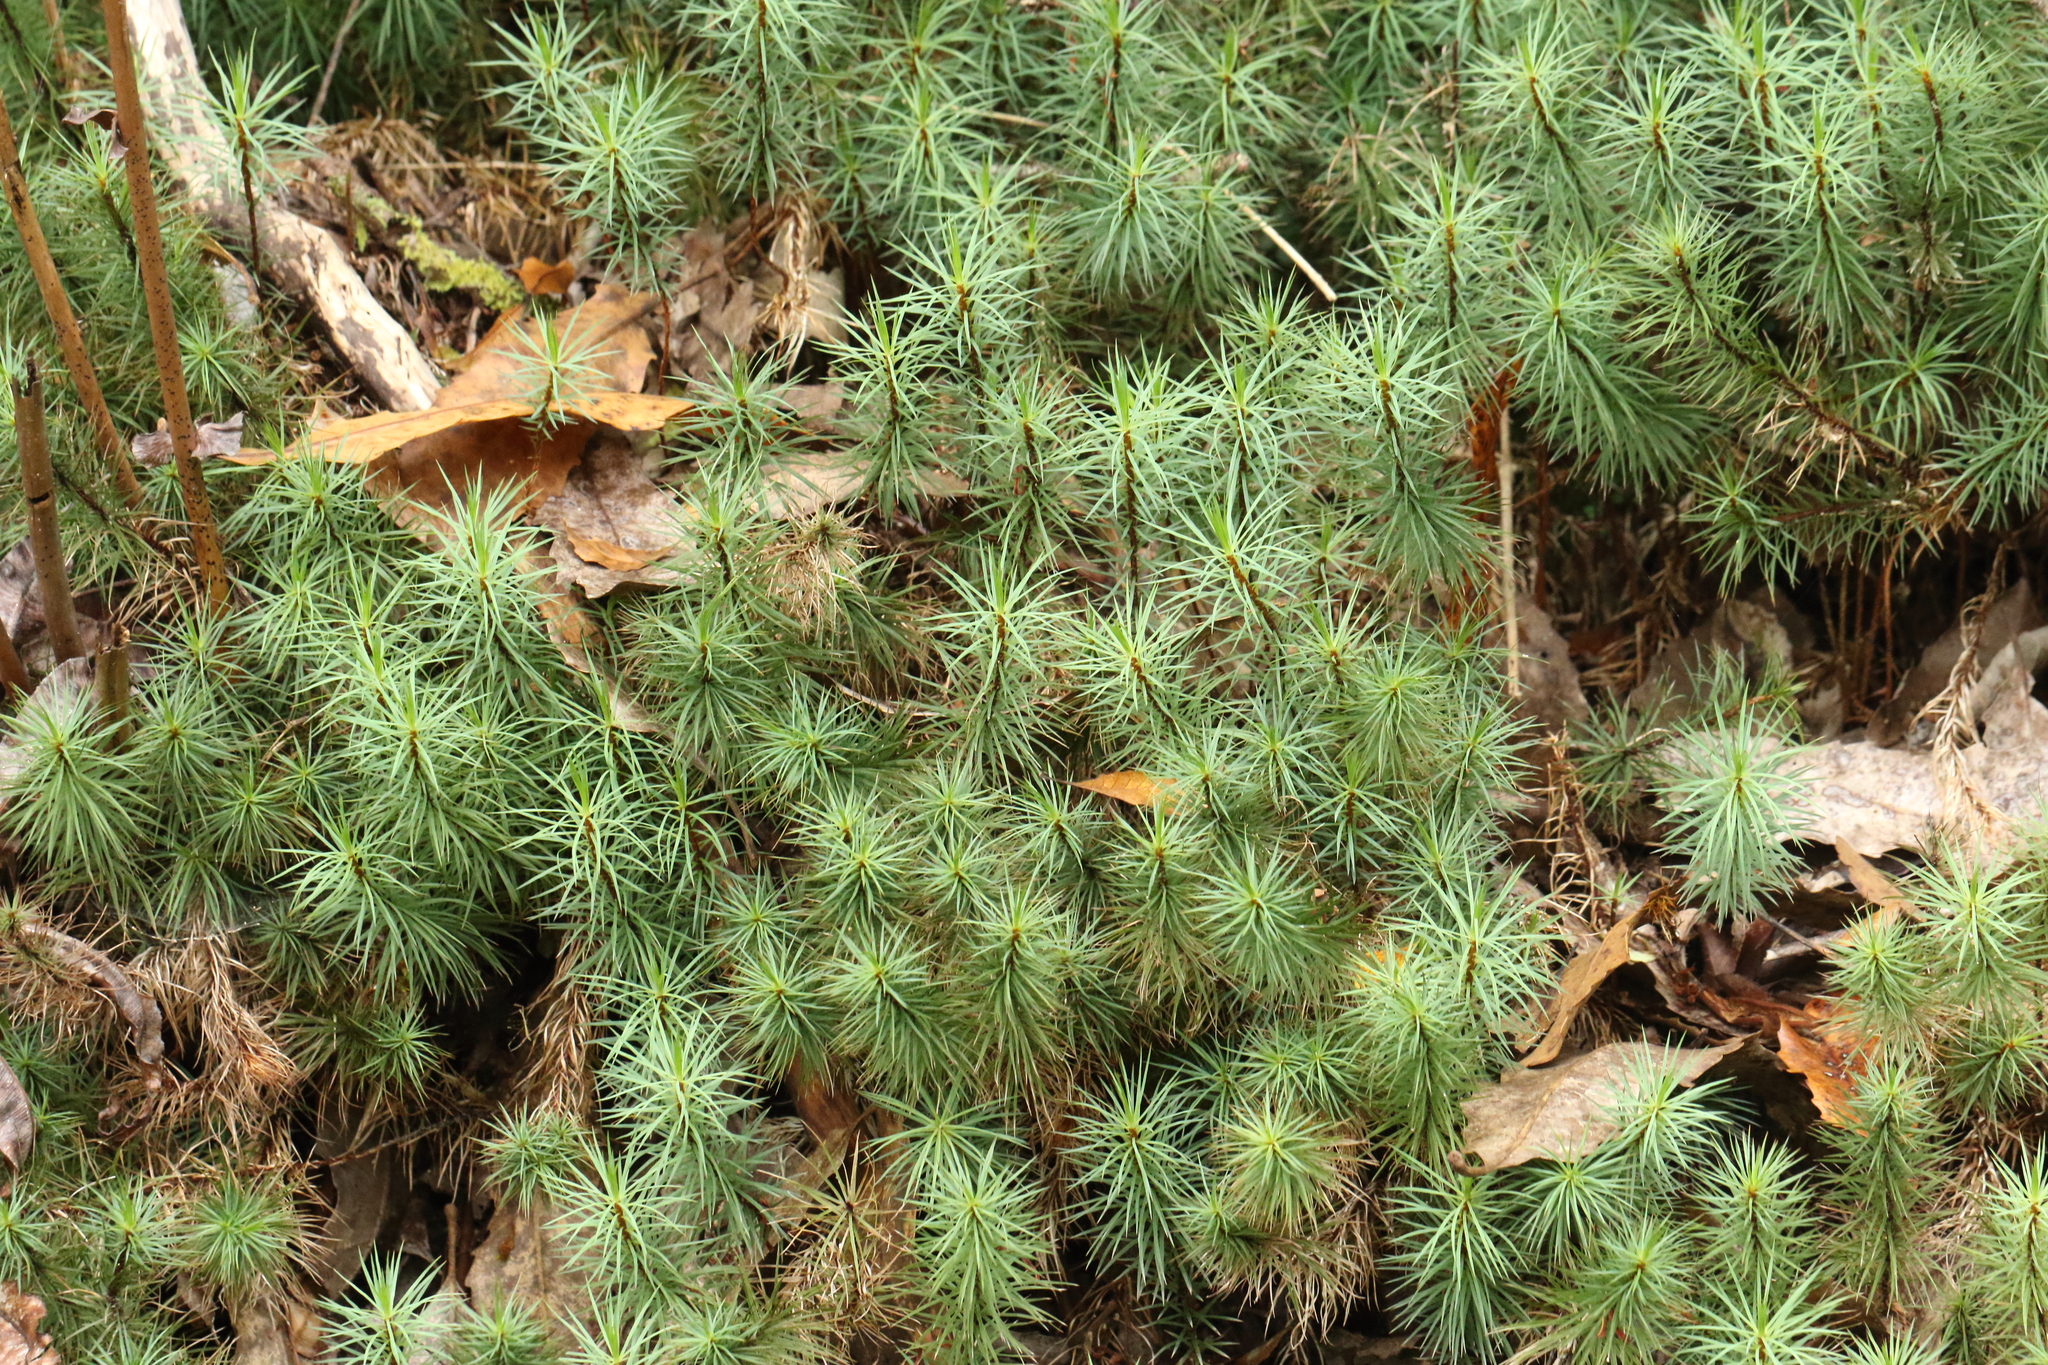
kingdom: Plantae
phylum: Bryophyta
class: Polytrichopsida
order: Polytrichales
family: Polytrichaceae
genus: Dawsonia
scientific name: Dawsonia superba
